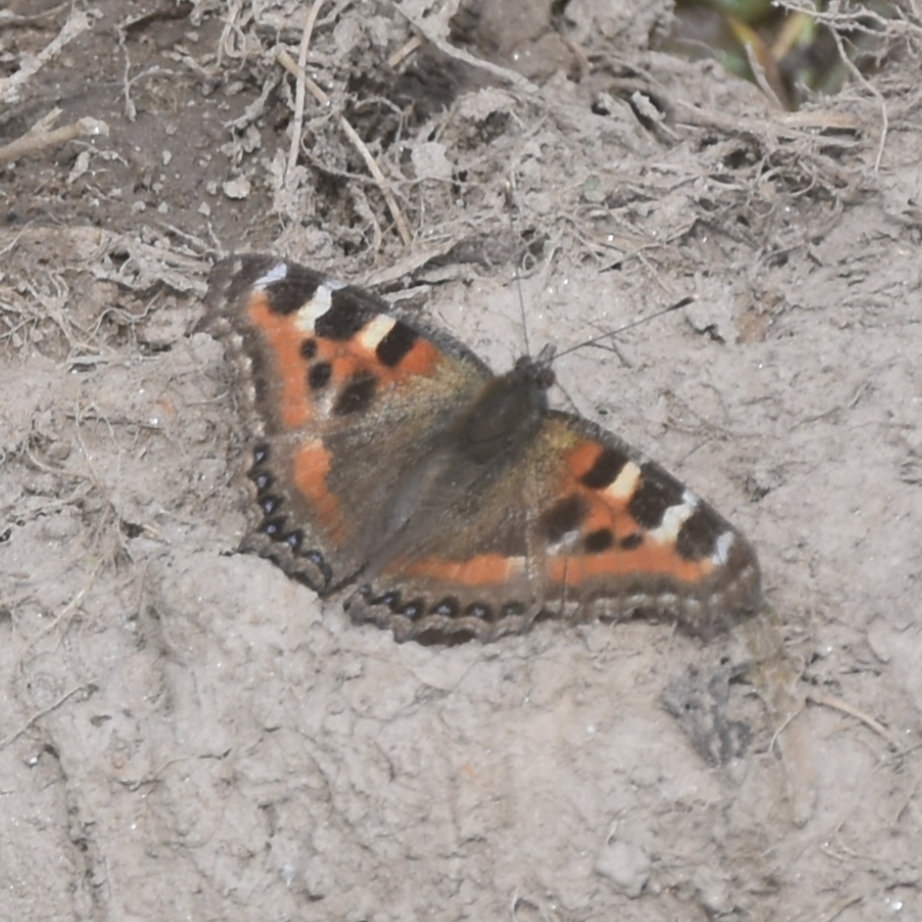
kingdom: Animalia
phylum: Arthropoda
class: Insecta
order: Lepidoptera
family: Nymphalidae
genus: Aglais
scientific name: Aglais caschmirensis
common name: Indian tortoiseshell
